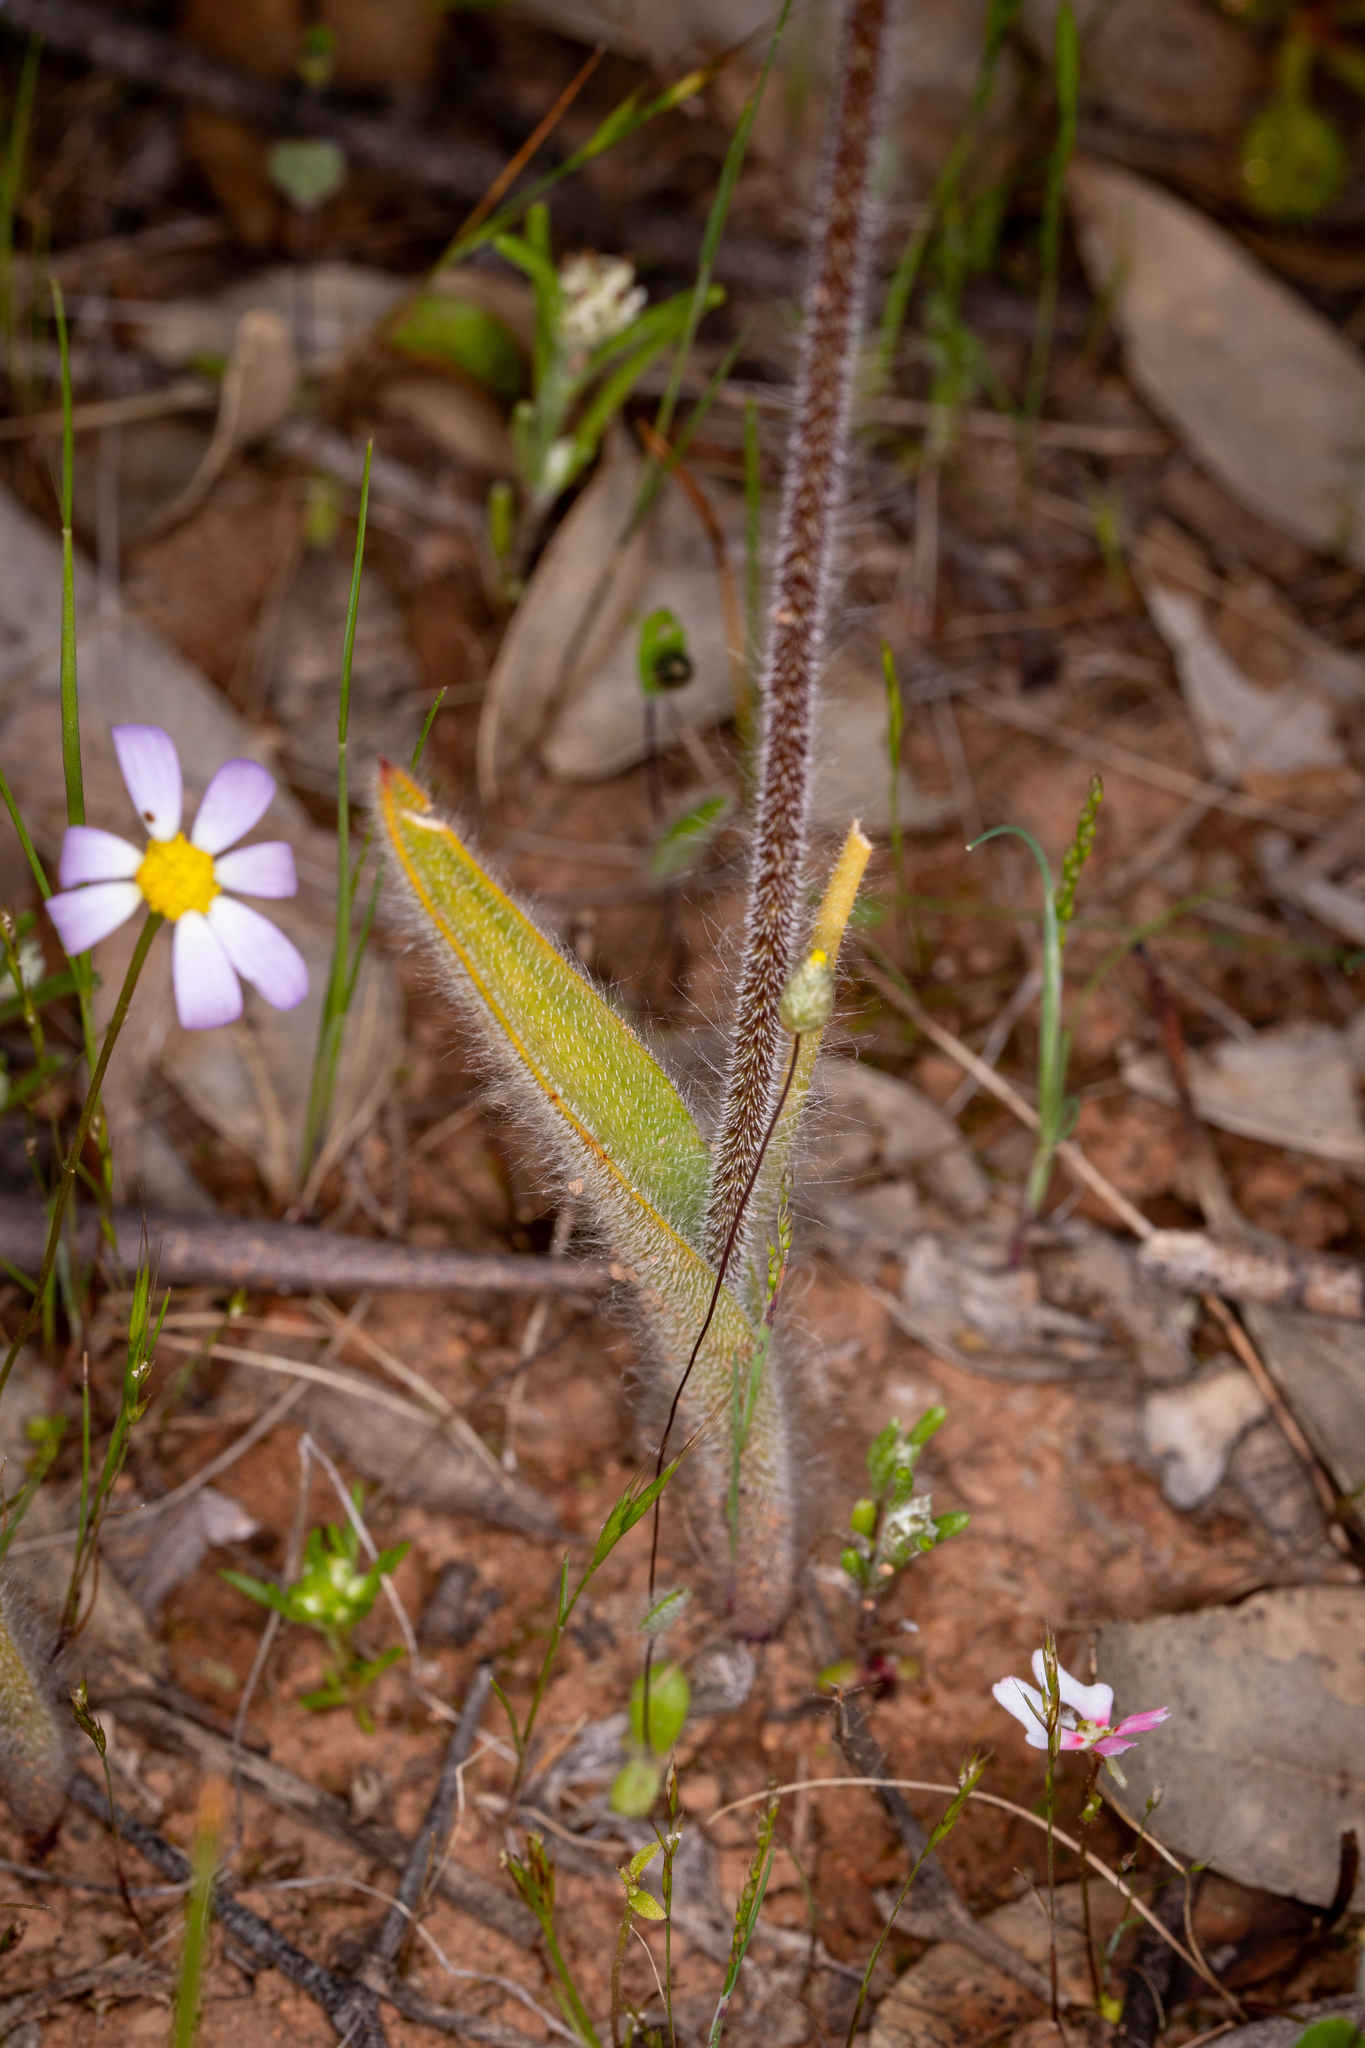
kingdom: Plantae
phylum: Tracheophyta
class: Liliopsida
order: Asparagales
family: Orchidaceae
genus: Caladenia
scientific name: Caladenia longicauda
